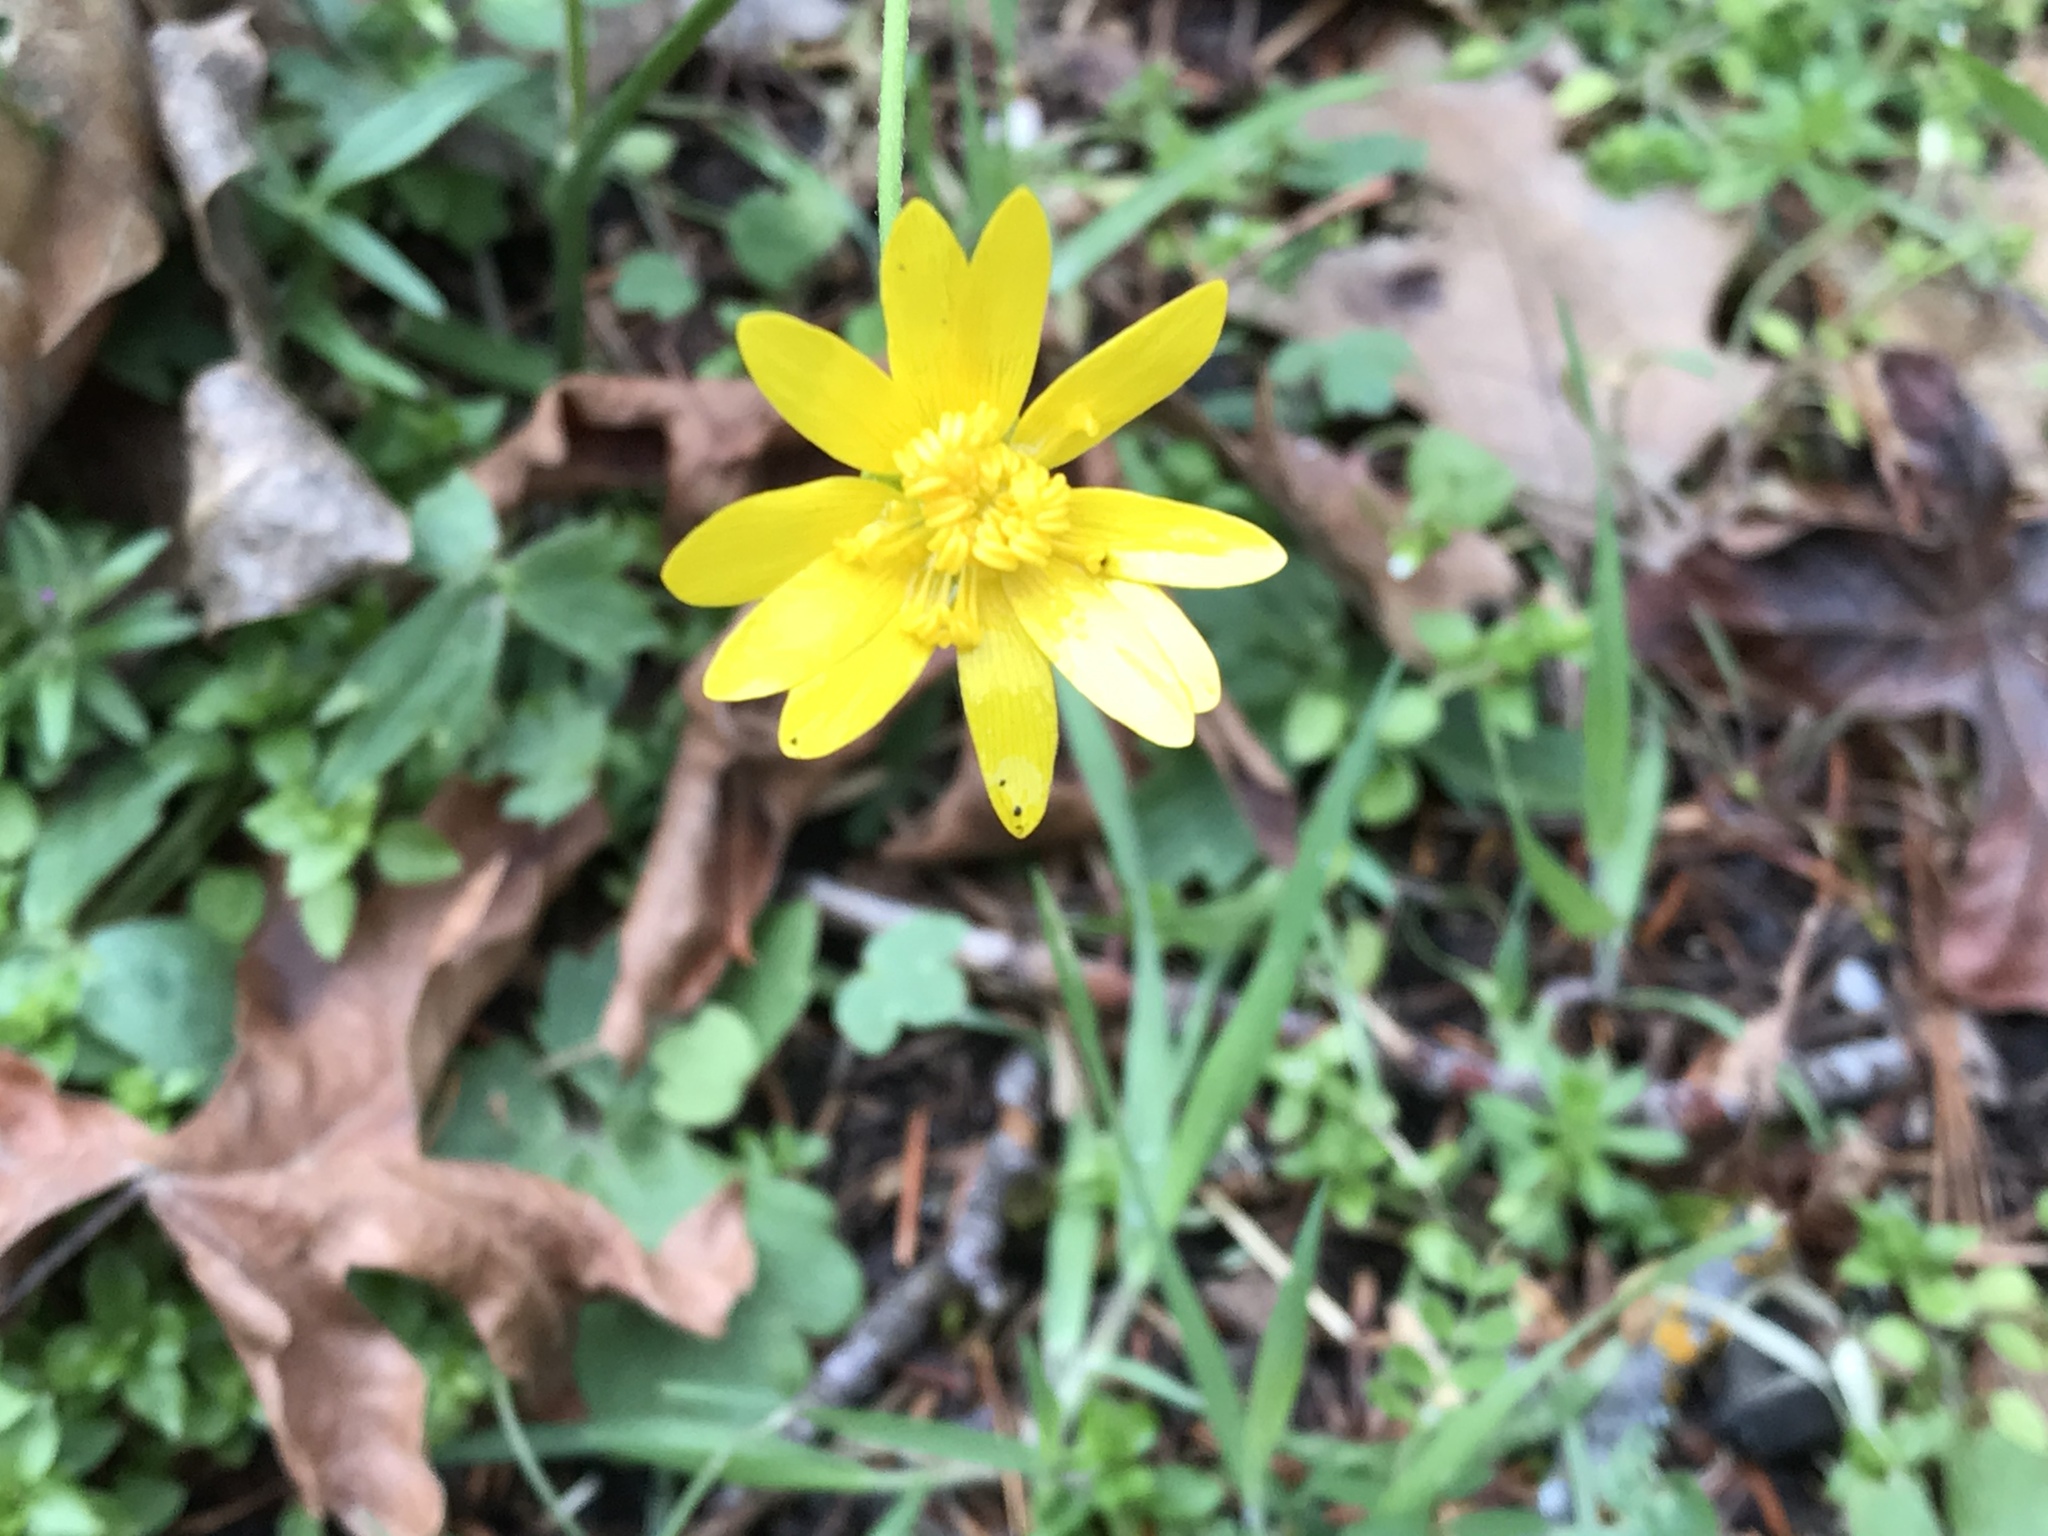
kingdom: Plantae
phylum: Tracheophyta
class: Magnoliopsida
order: Ranunculales
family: Ranunculaceae
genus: Ranunculus
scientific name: Ranunculus californicus
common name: California buttercup
